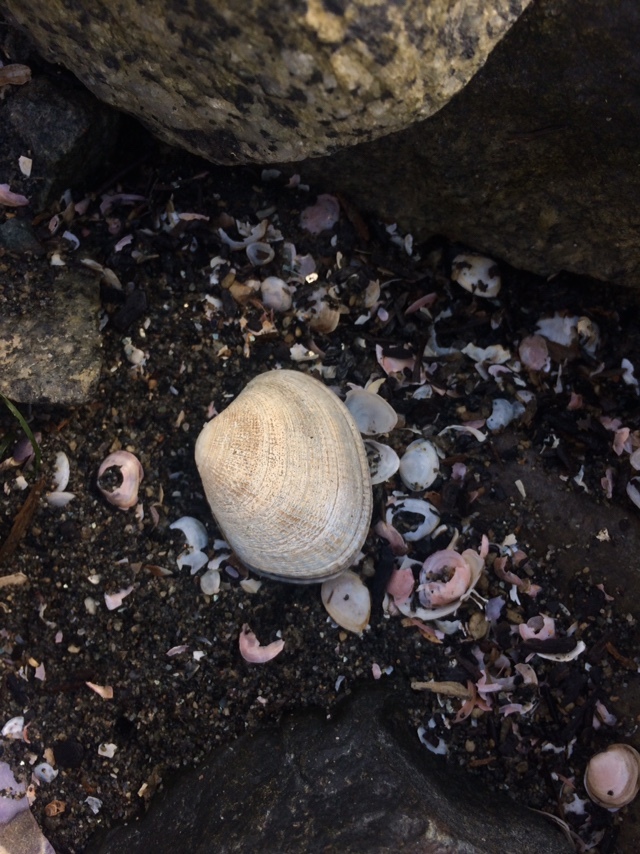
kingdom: Animalia
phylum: Mollusca
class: Bivalvia
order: Venerida
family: Veneridae
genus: Ruditapes
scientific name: Ruditapes philippinarum
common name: Manila clam
